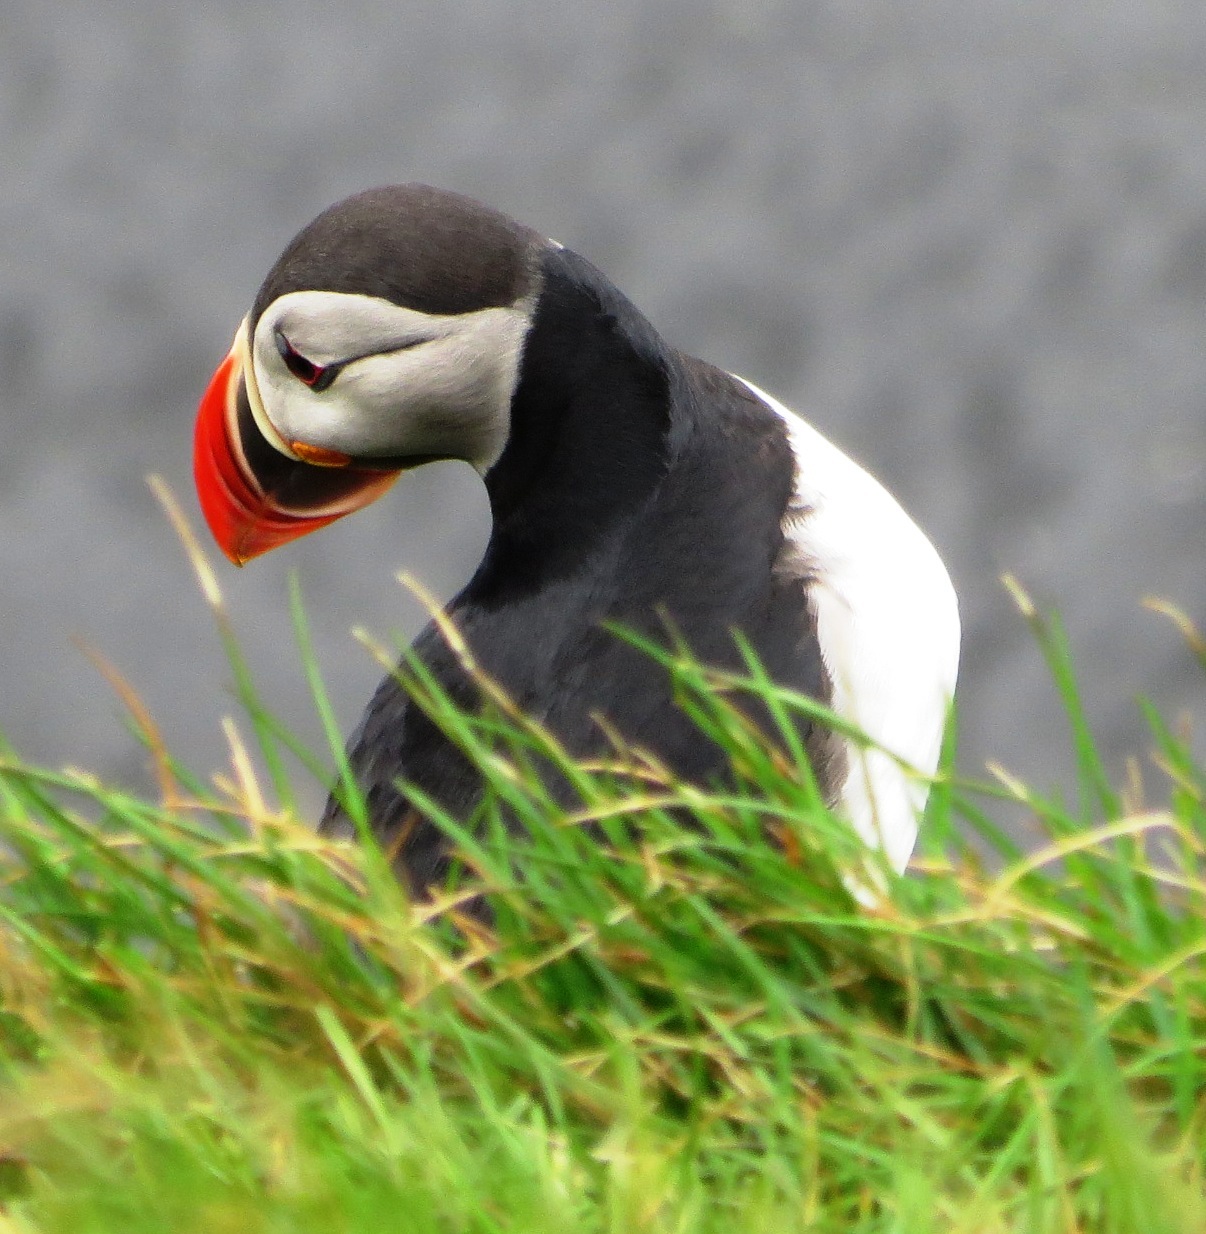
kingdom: Animalia
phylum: Chordata
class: Aves
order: Charadriiformes
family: Alcidae
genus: Fratercula
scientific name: Fratercula arctica
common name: Atlantic puffin
